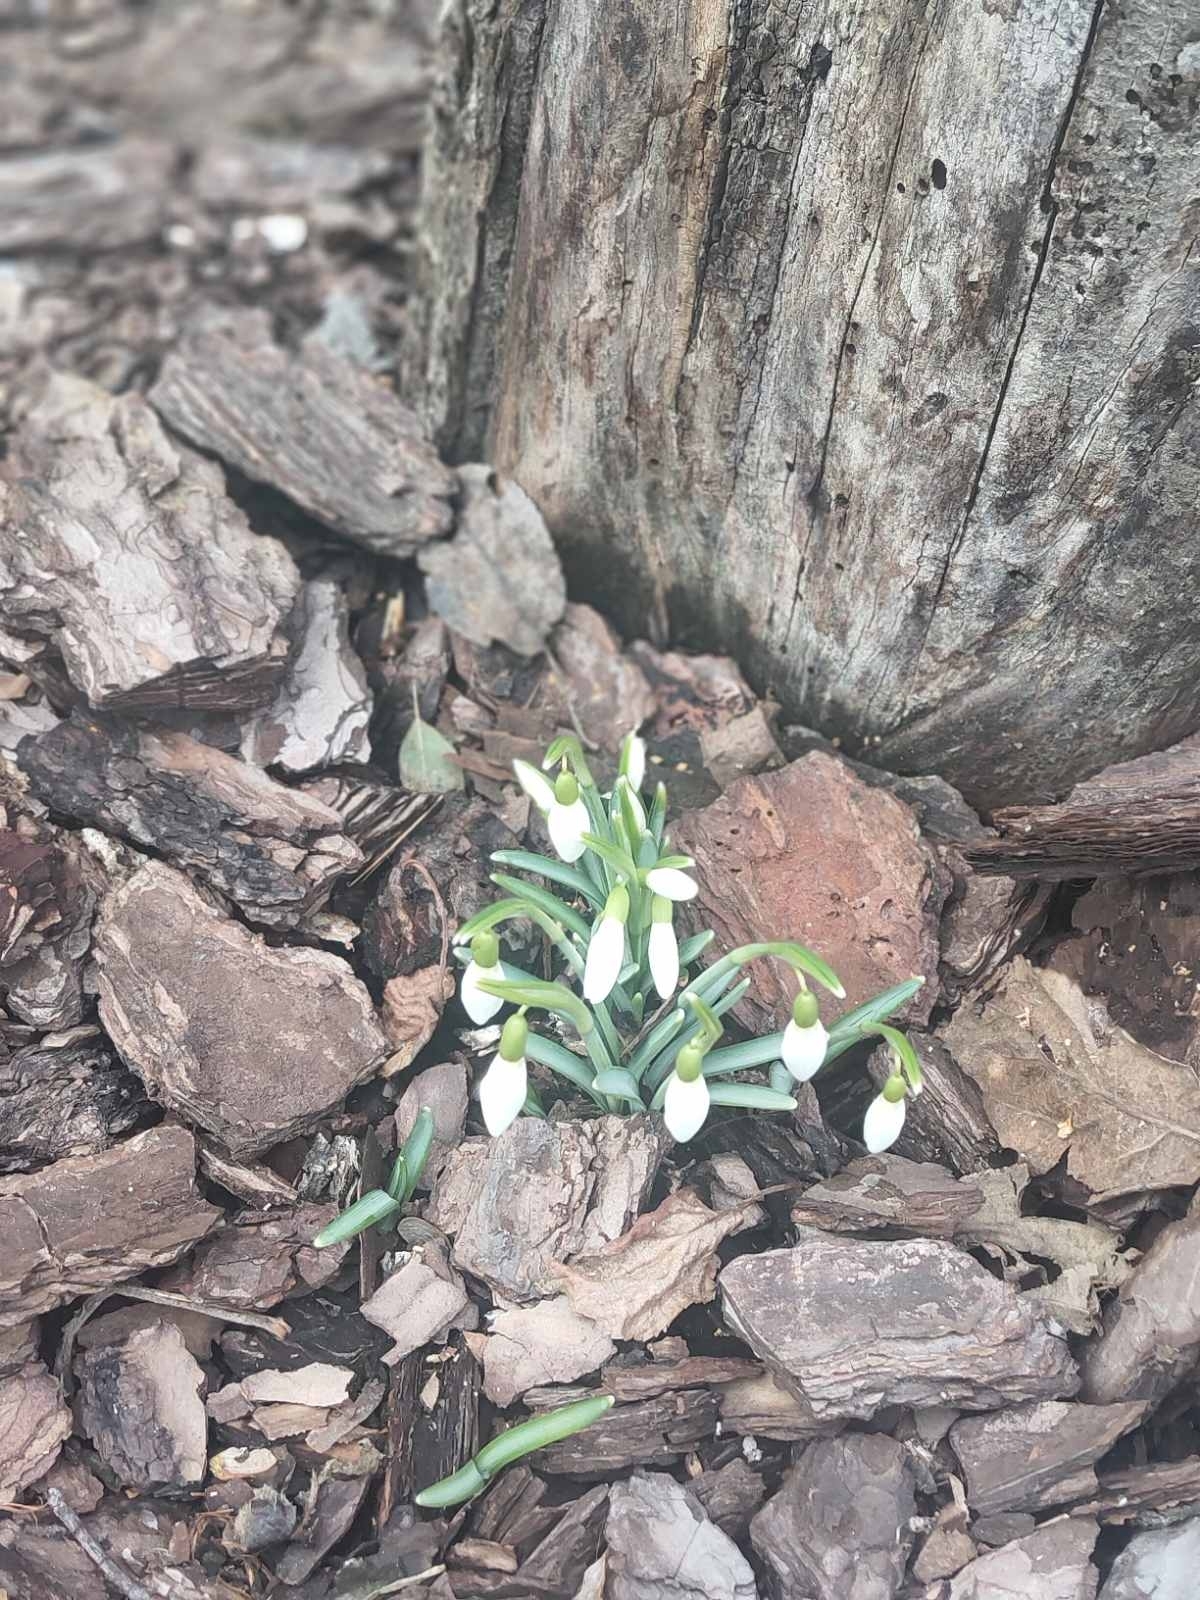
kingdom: Plantae
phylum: Tracheophyta
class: Liliopsida
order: Asparagales
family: Amaryllidaceae
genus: Galanthus
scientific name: Galanthus nivalis
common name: Snowdrop
